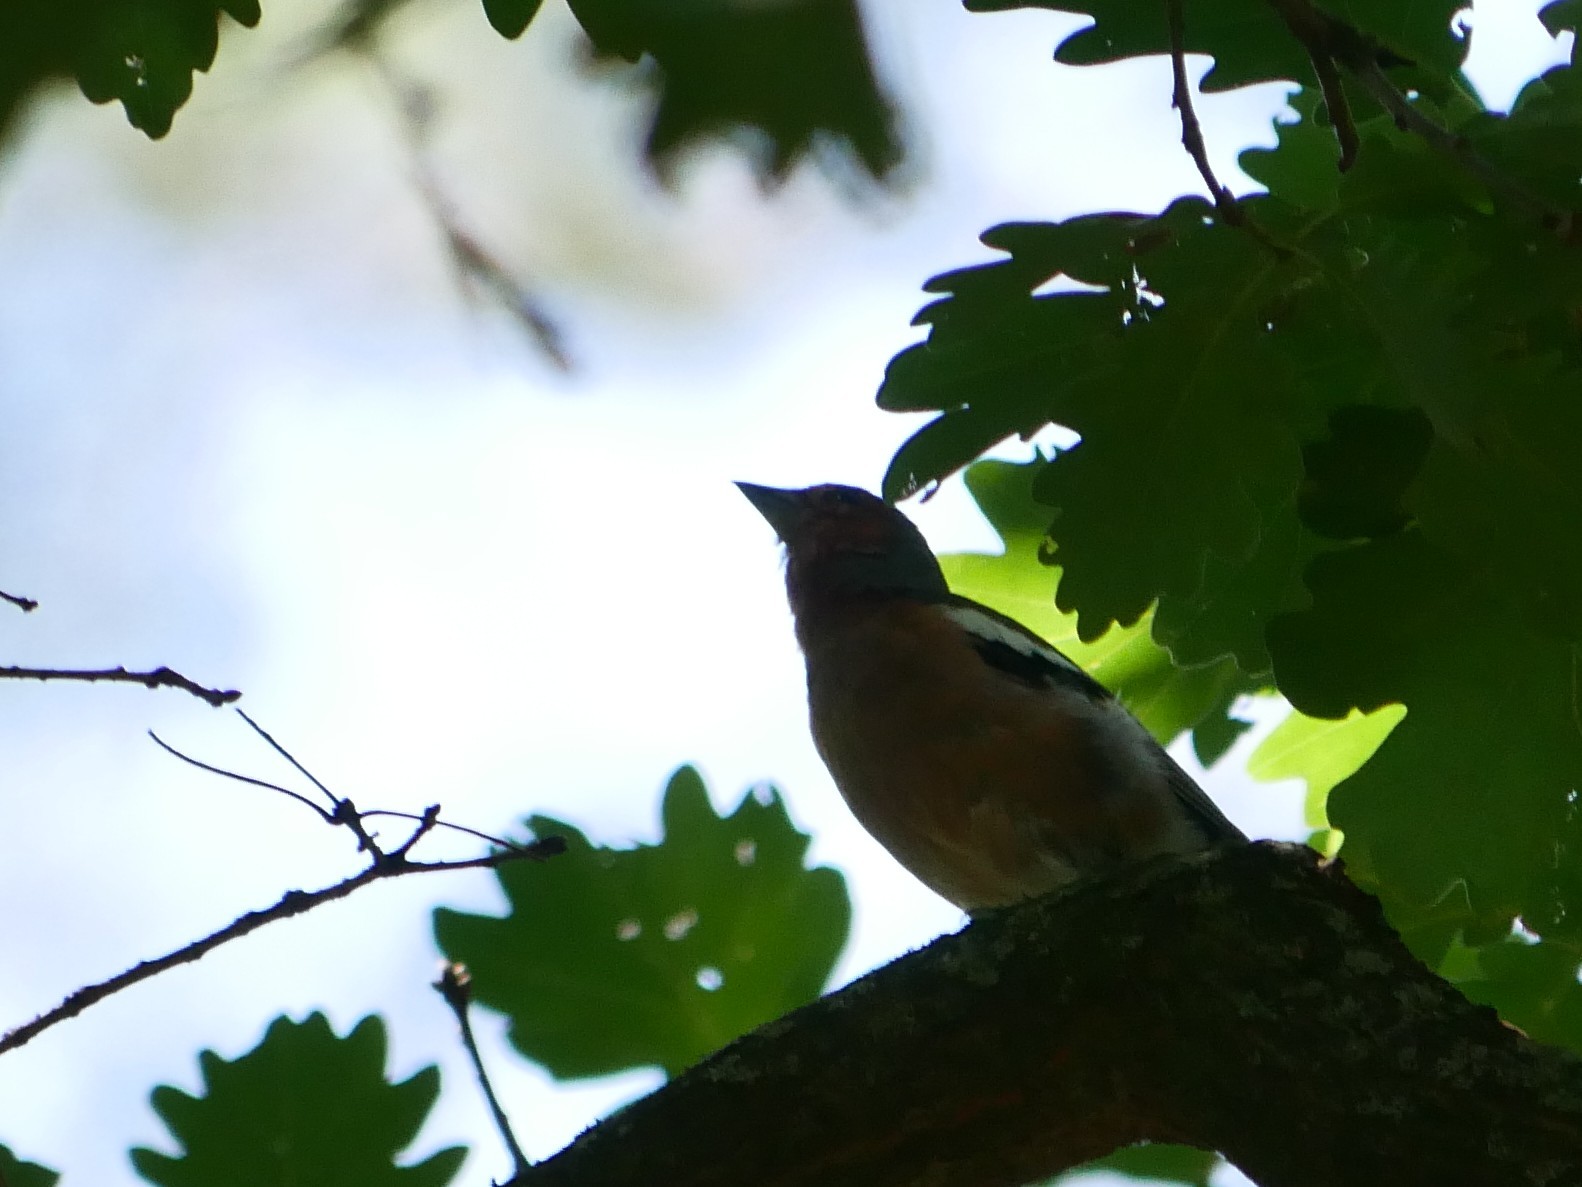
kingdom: Animalia
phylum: Chordata
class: Aves
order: Passeriformes
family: Fringillidae
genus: Fringilla
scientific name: Fringilla coelebs
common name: Common chaffinch
